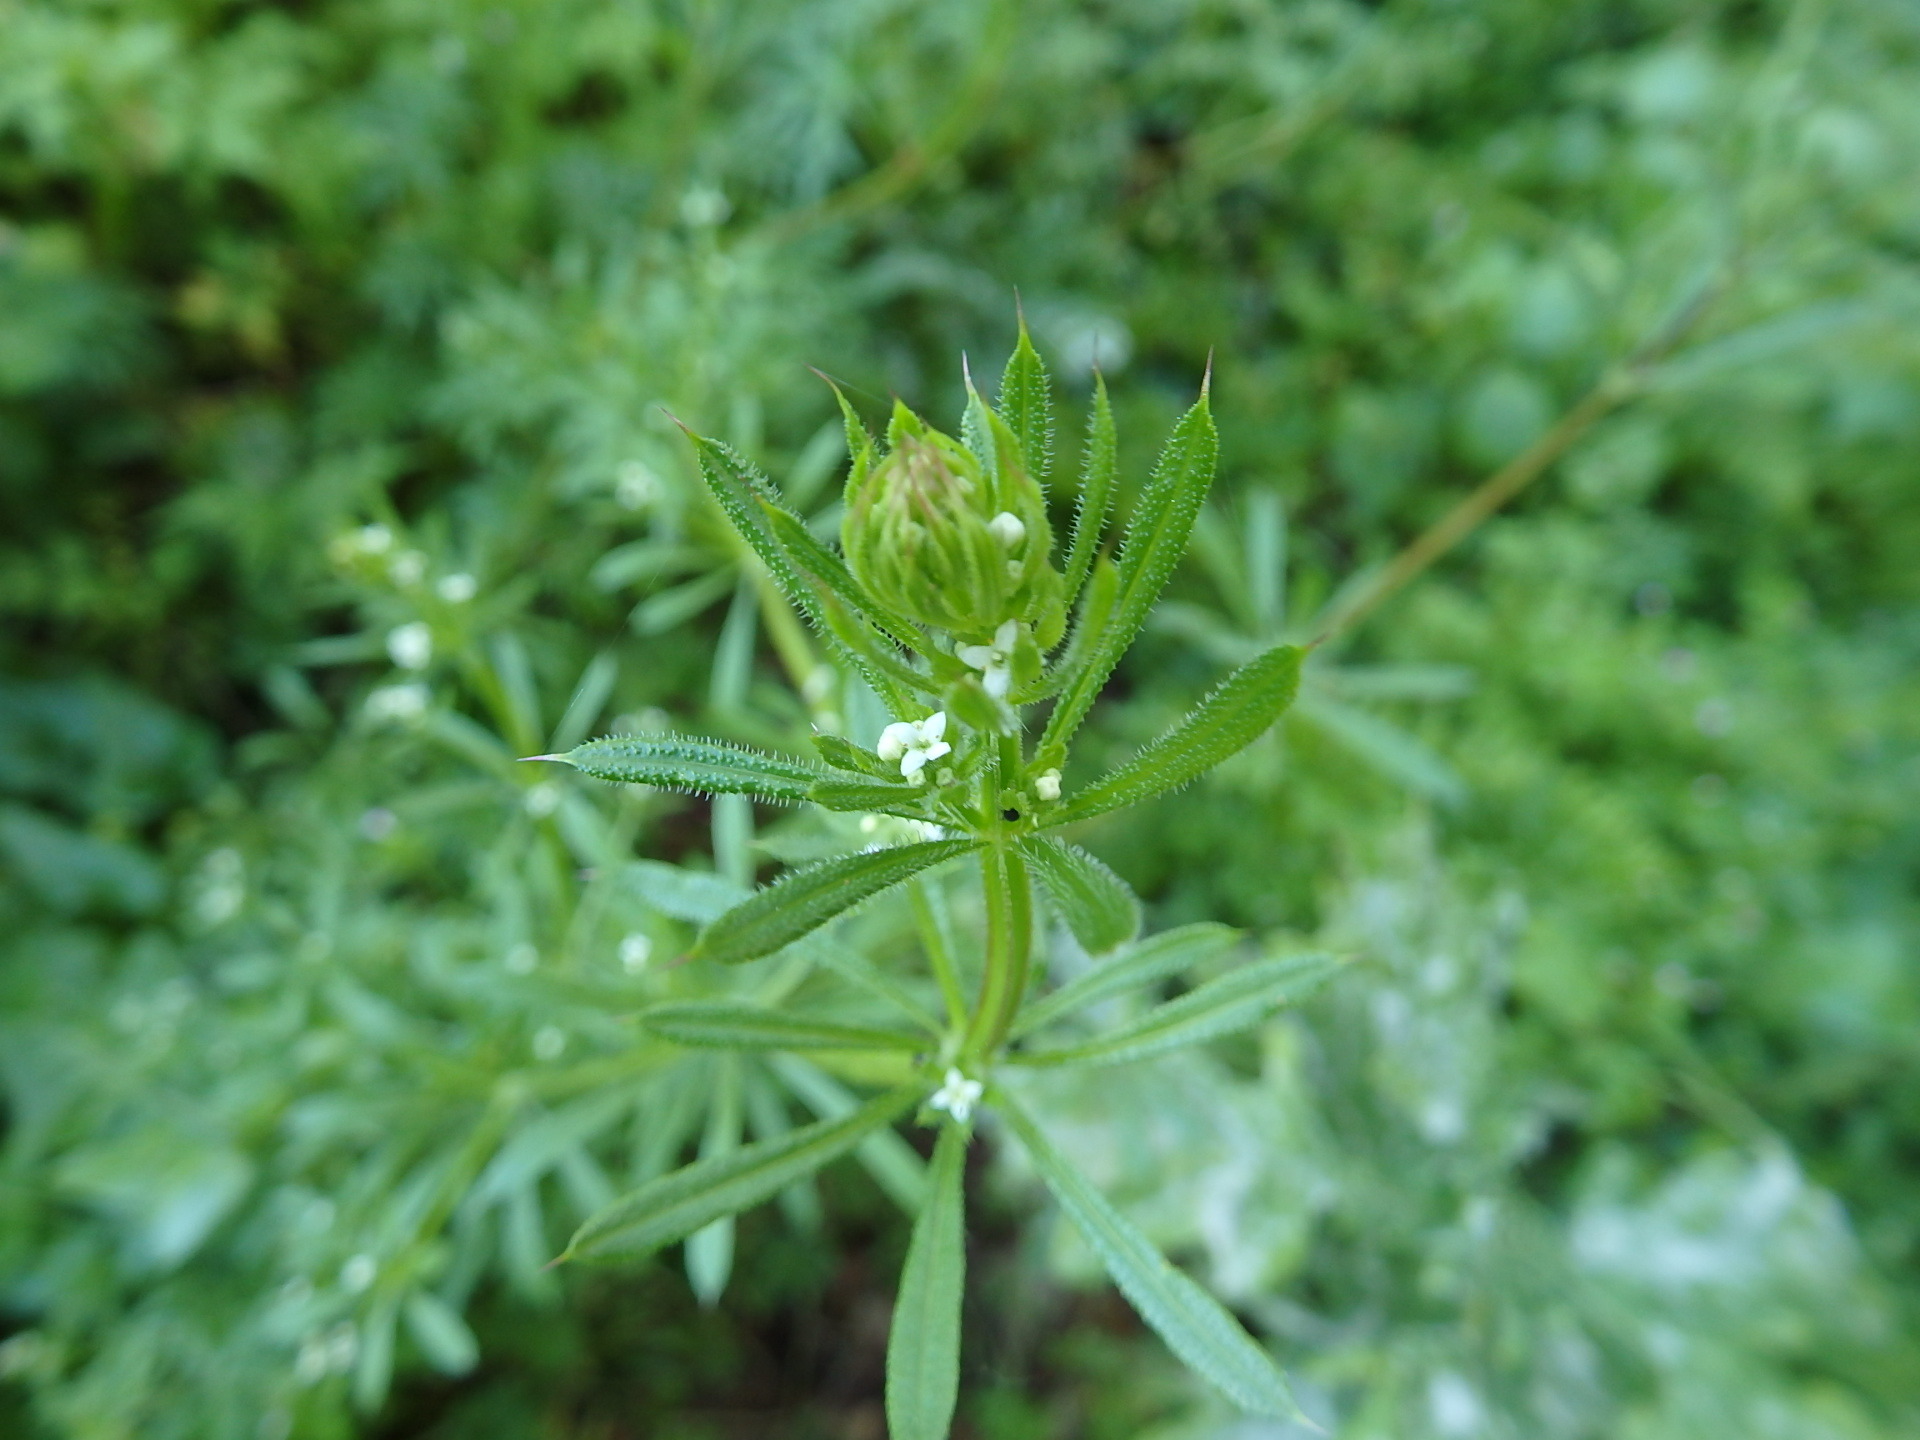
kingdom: Plantae
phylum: Tracheophyta
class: Magnoliopsida
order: Gentianales
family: Rubiaceae
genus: Galium
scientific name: Galium aparine
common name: Cleavers
